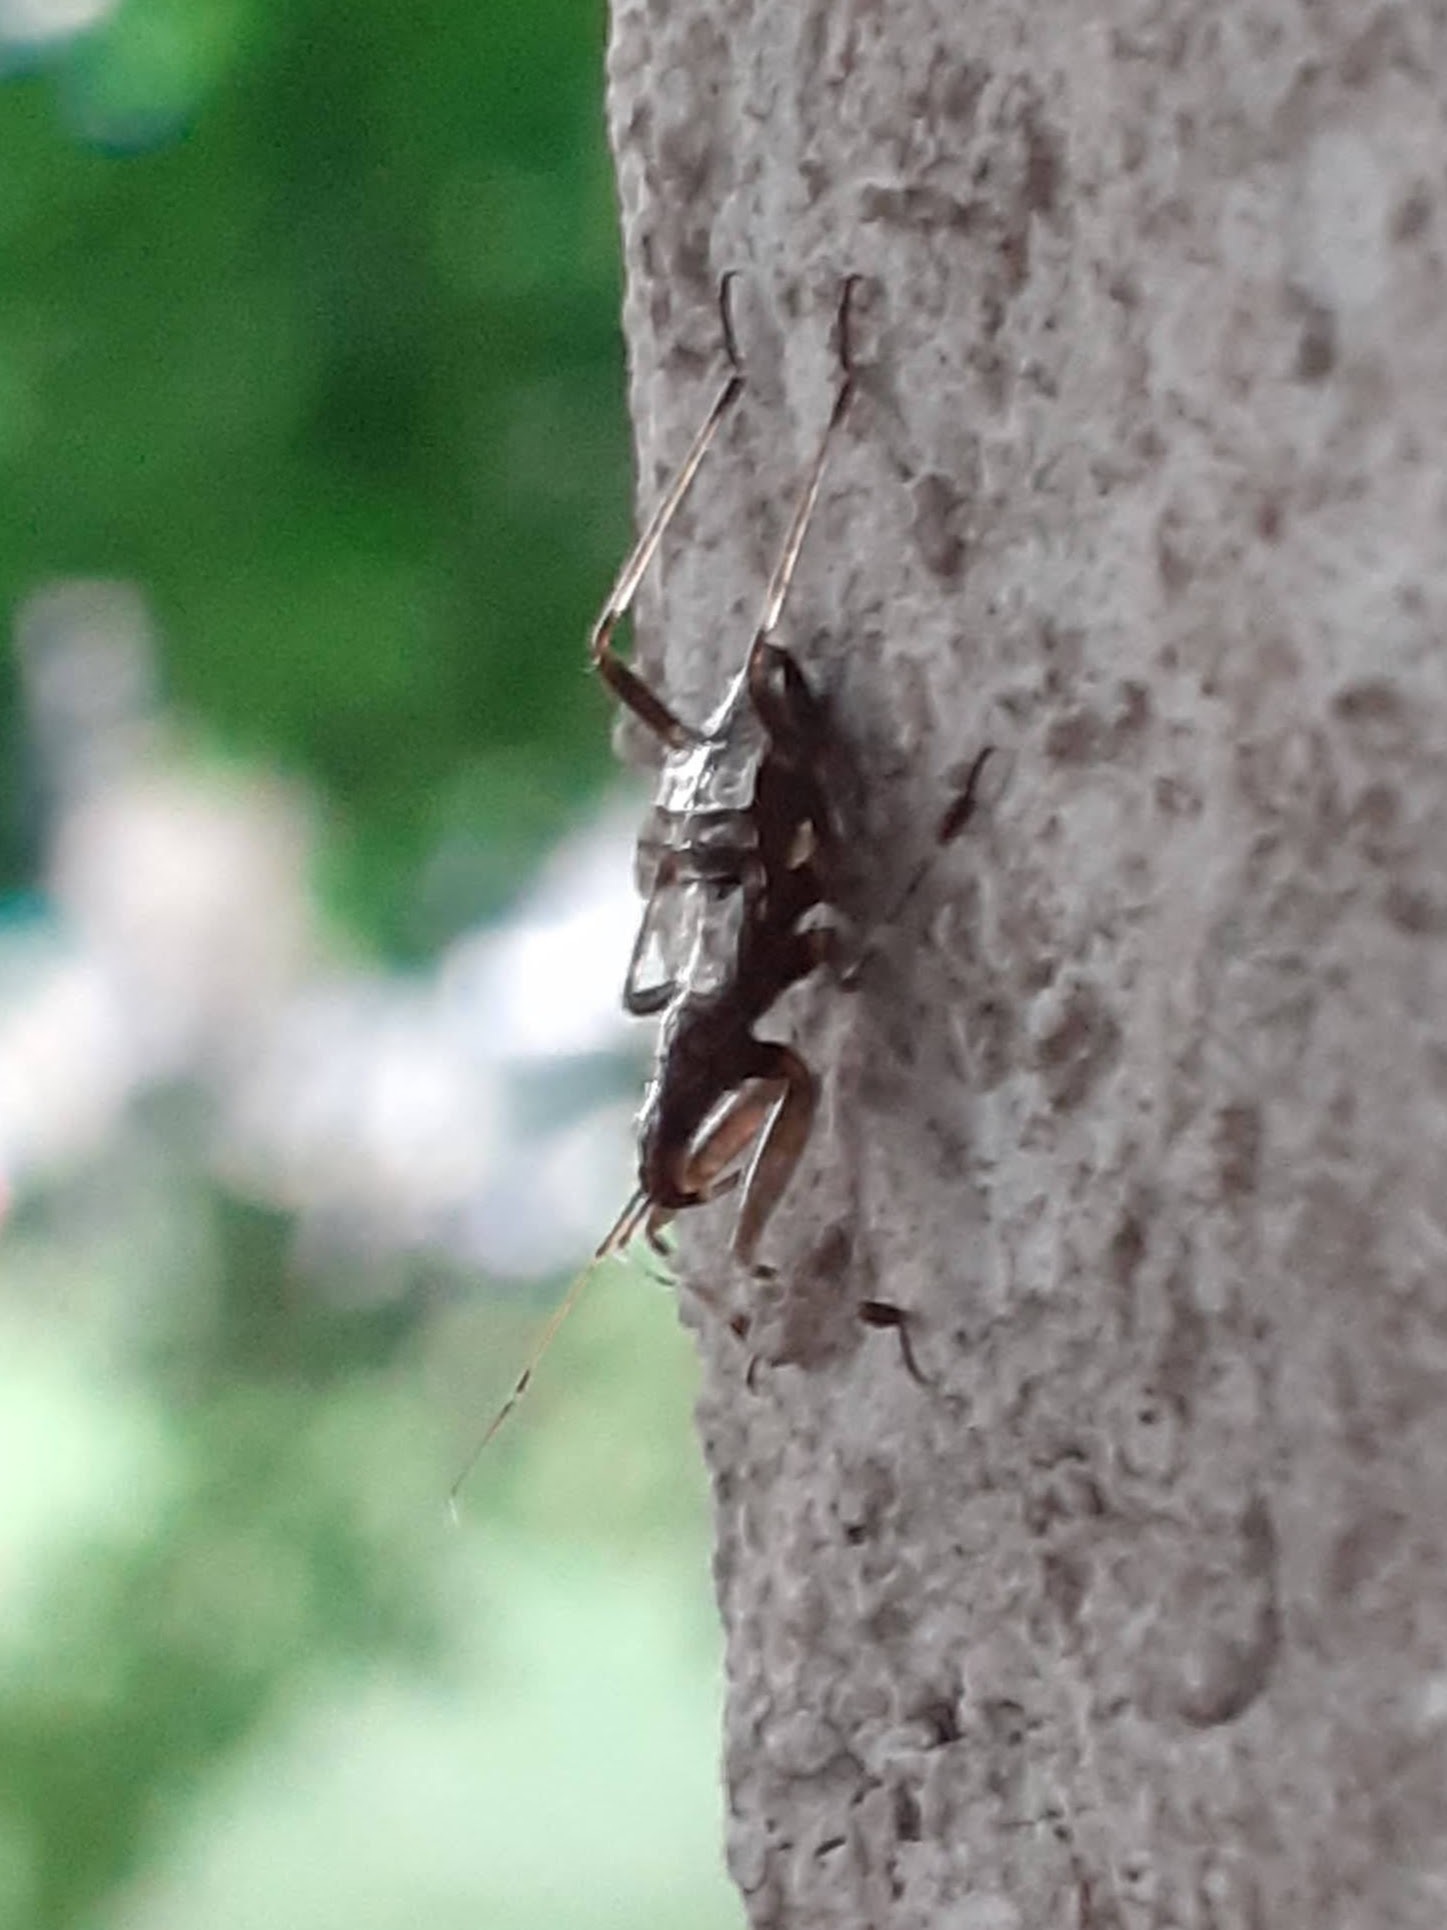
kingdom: Animalia
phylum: Arthropoda
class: Insecta
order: Hemiptera
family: Nabidae
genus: Himacerus
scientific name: Himacerus apterus
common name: Tree damsel bug
